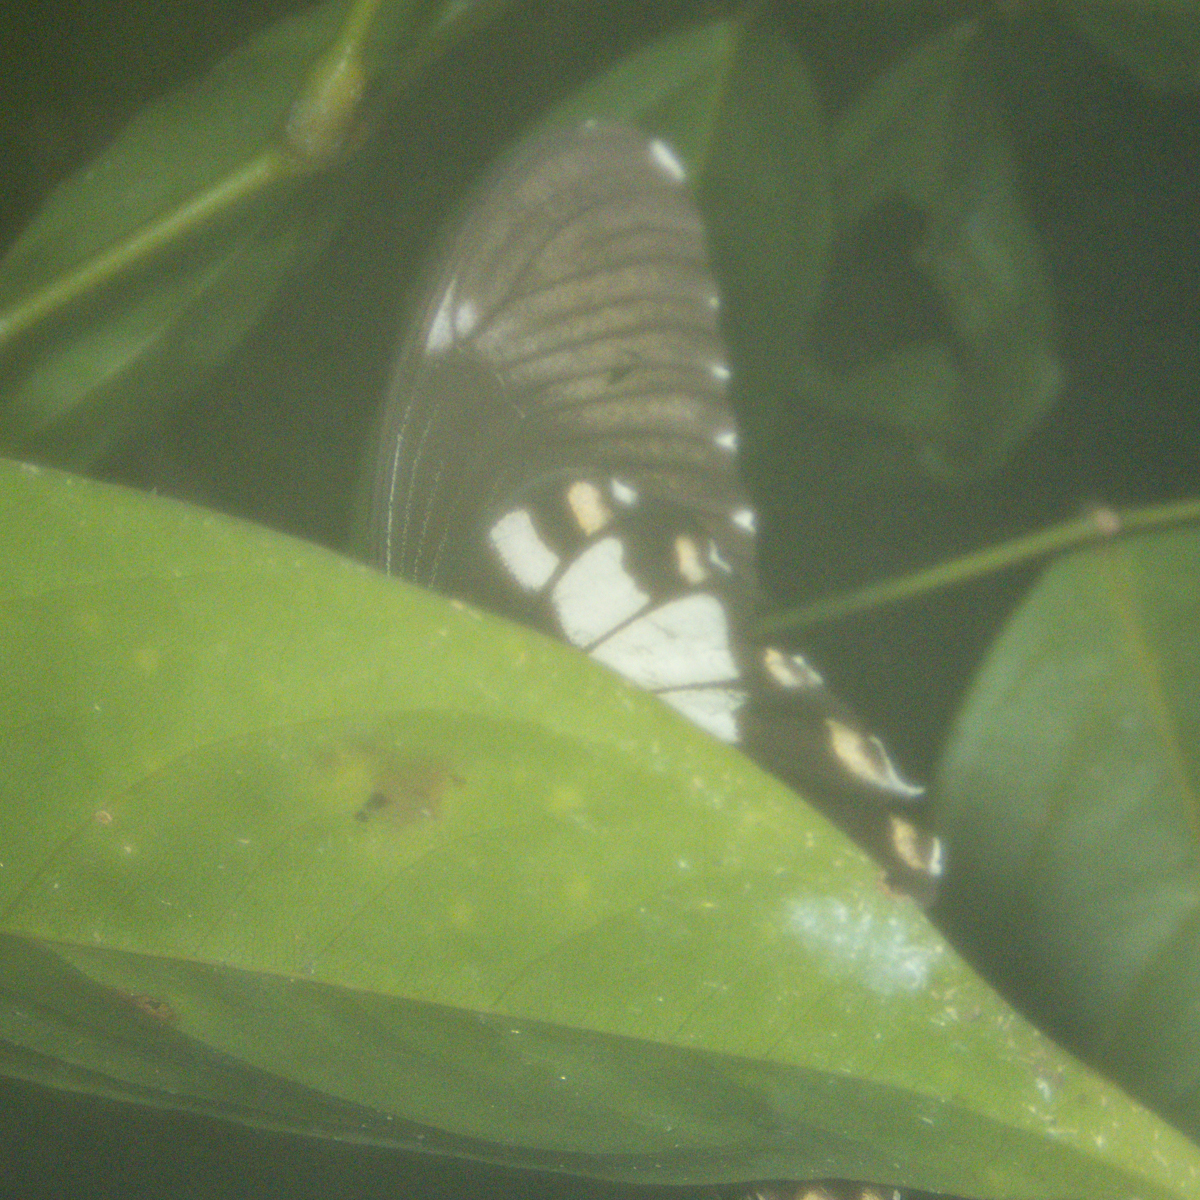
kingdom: Animalia
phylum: Arthropoda
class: Insecta
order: Lepidoptera
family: Papilionidae
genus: Atrophaneura
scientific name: Atrophaneura varuna
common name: Common batwing
